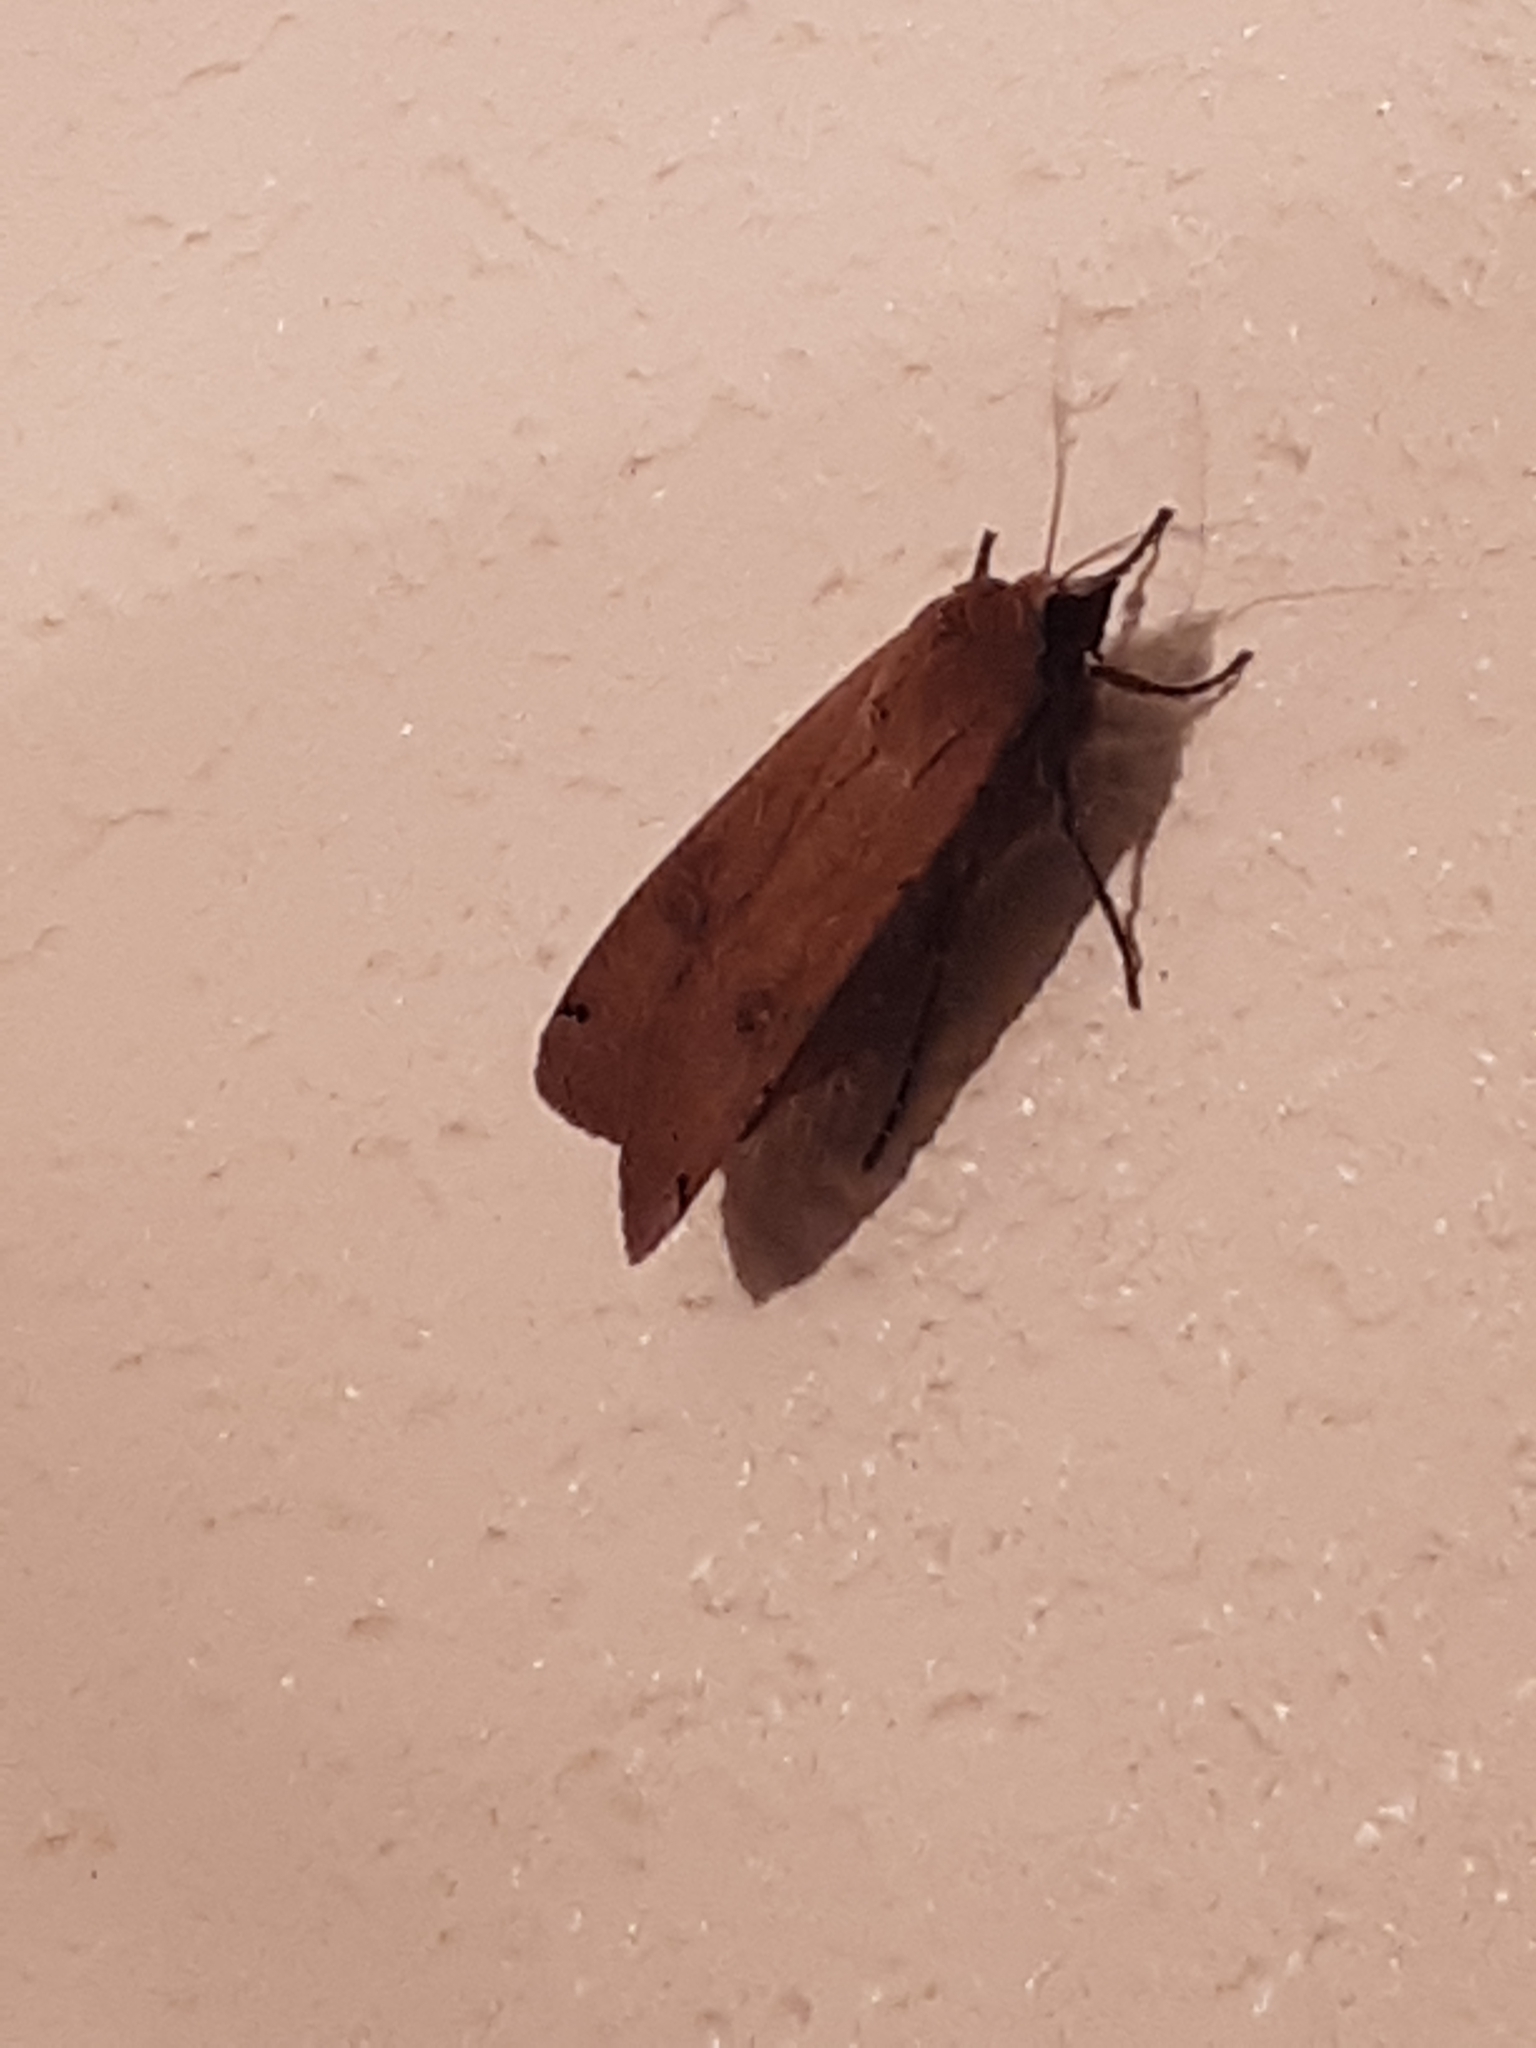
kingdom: Animalia
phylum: Arthropoda
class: Insecta
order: Lepidoptera
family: Noctuidae
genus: Noctua
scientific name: Noctua pronuba
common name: Large yellow underwing
